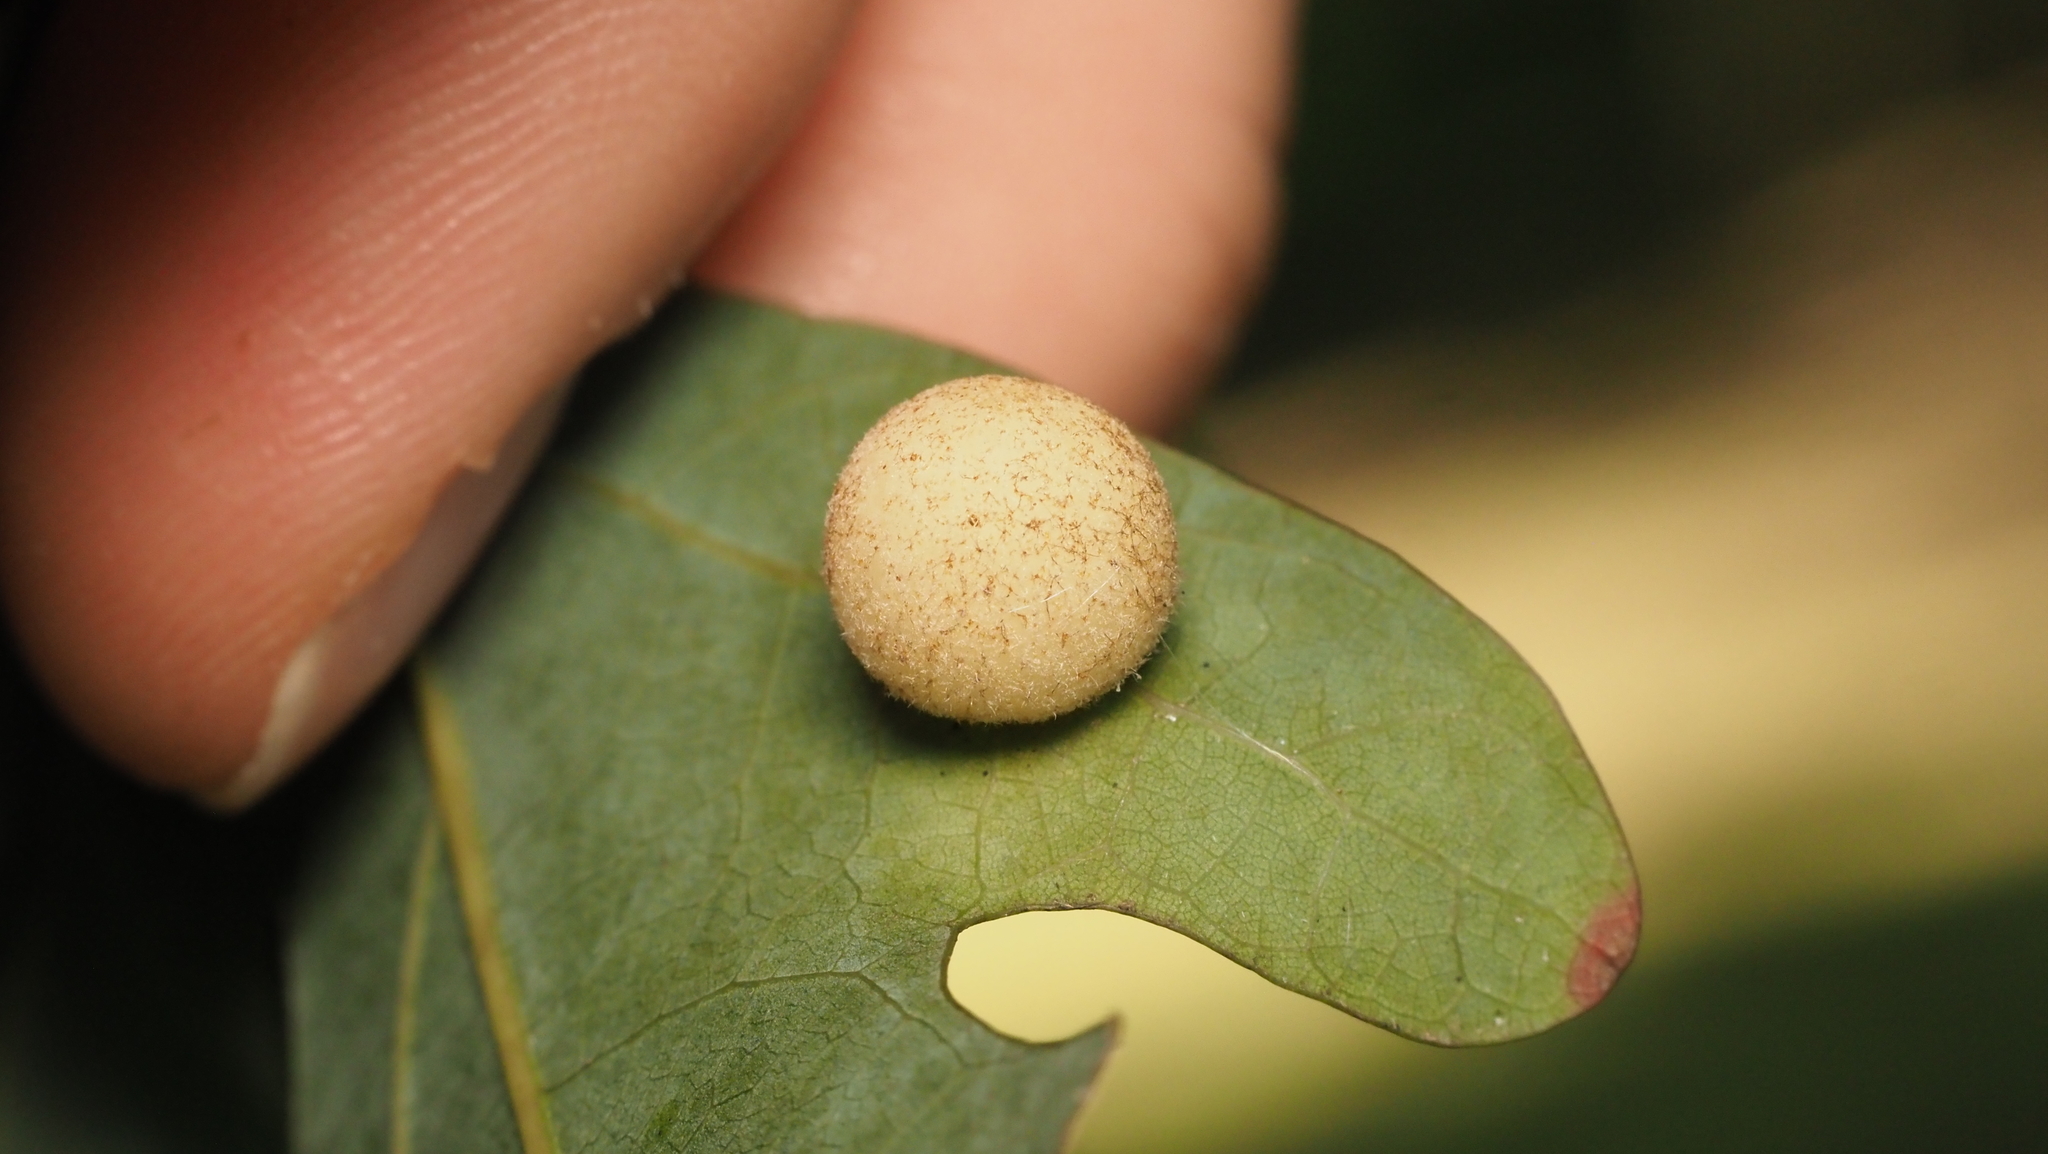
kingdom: Animalia
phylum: Arthropoda
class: Insecta
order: Hymenoptera
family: Cynipidae
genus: Philonix
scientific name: Philonix fulvicollis
